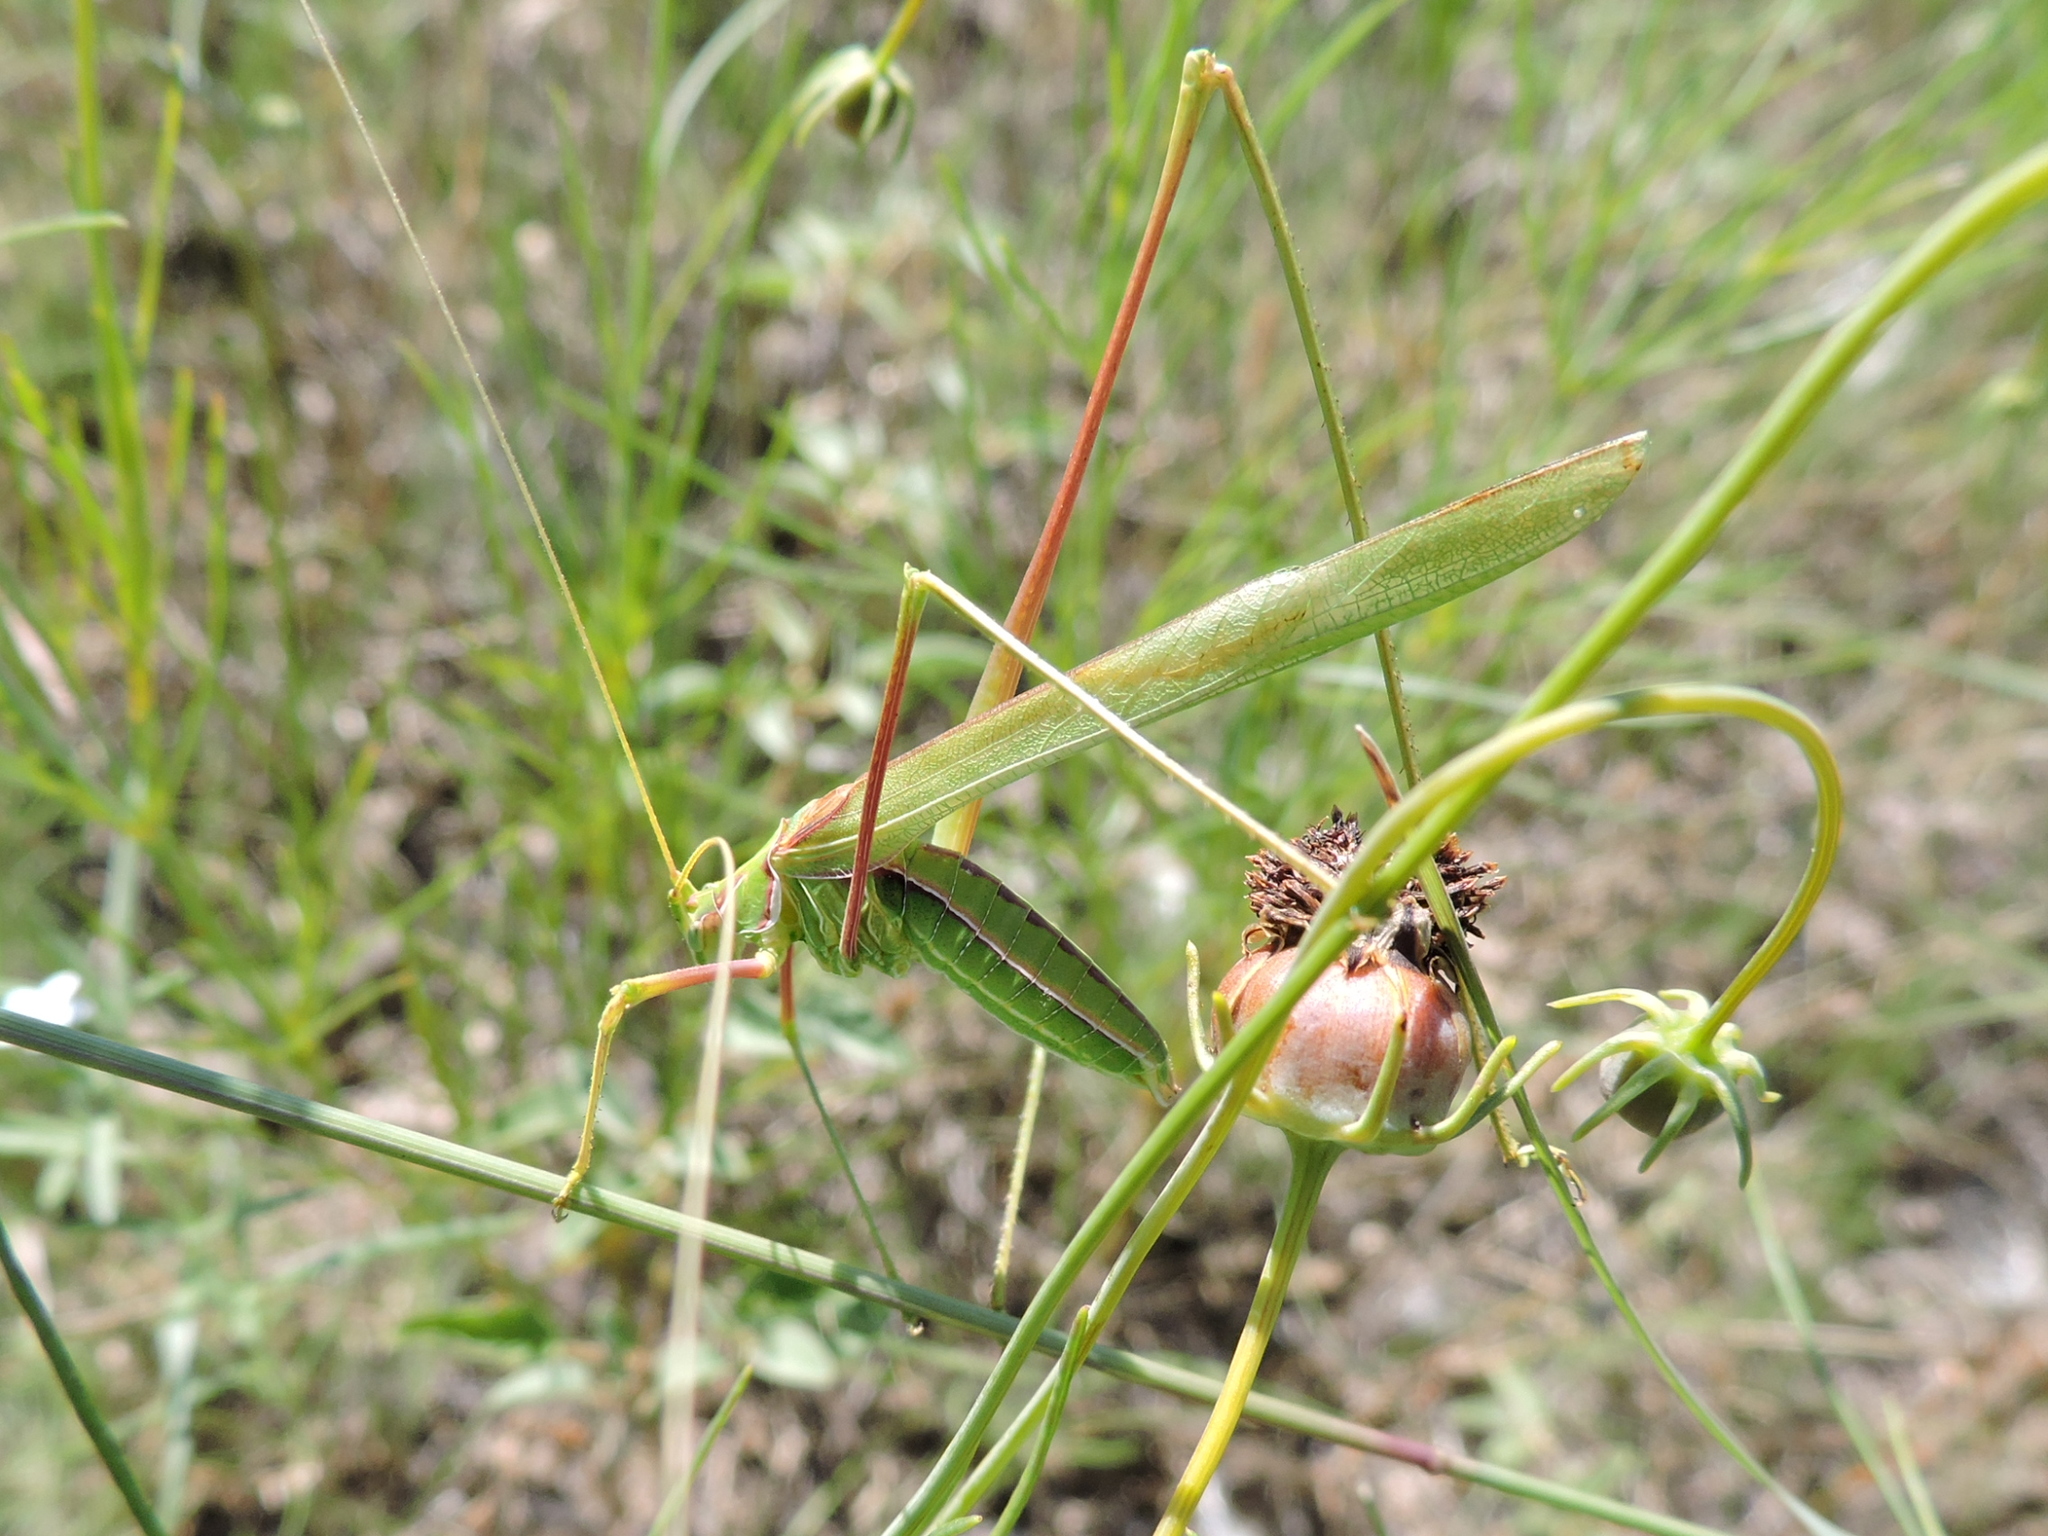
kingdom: Animalia
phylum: Arthropoda
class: Insecta
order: Orthoptera
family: Tettigoniidae
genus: Arethaea
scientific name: Arethaea ambulator
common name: Walking thread-legged katydid
